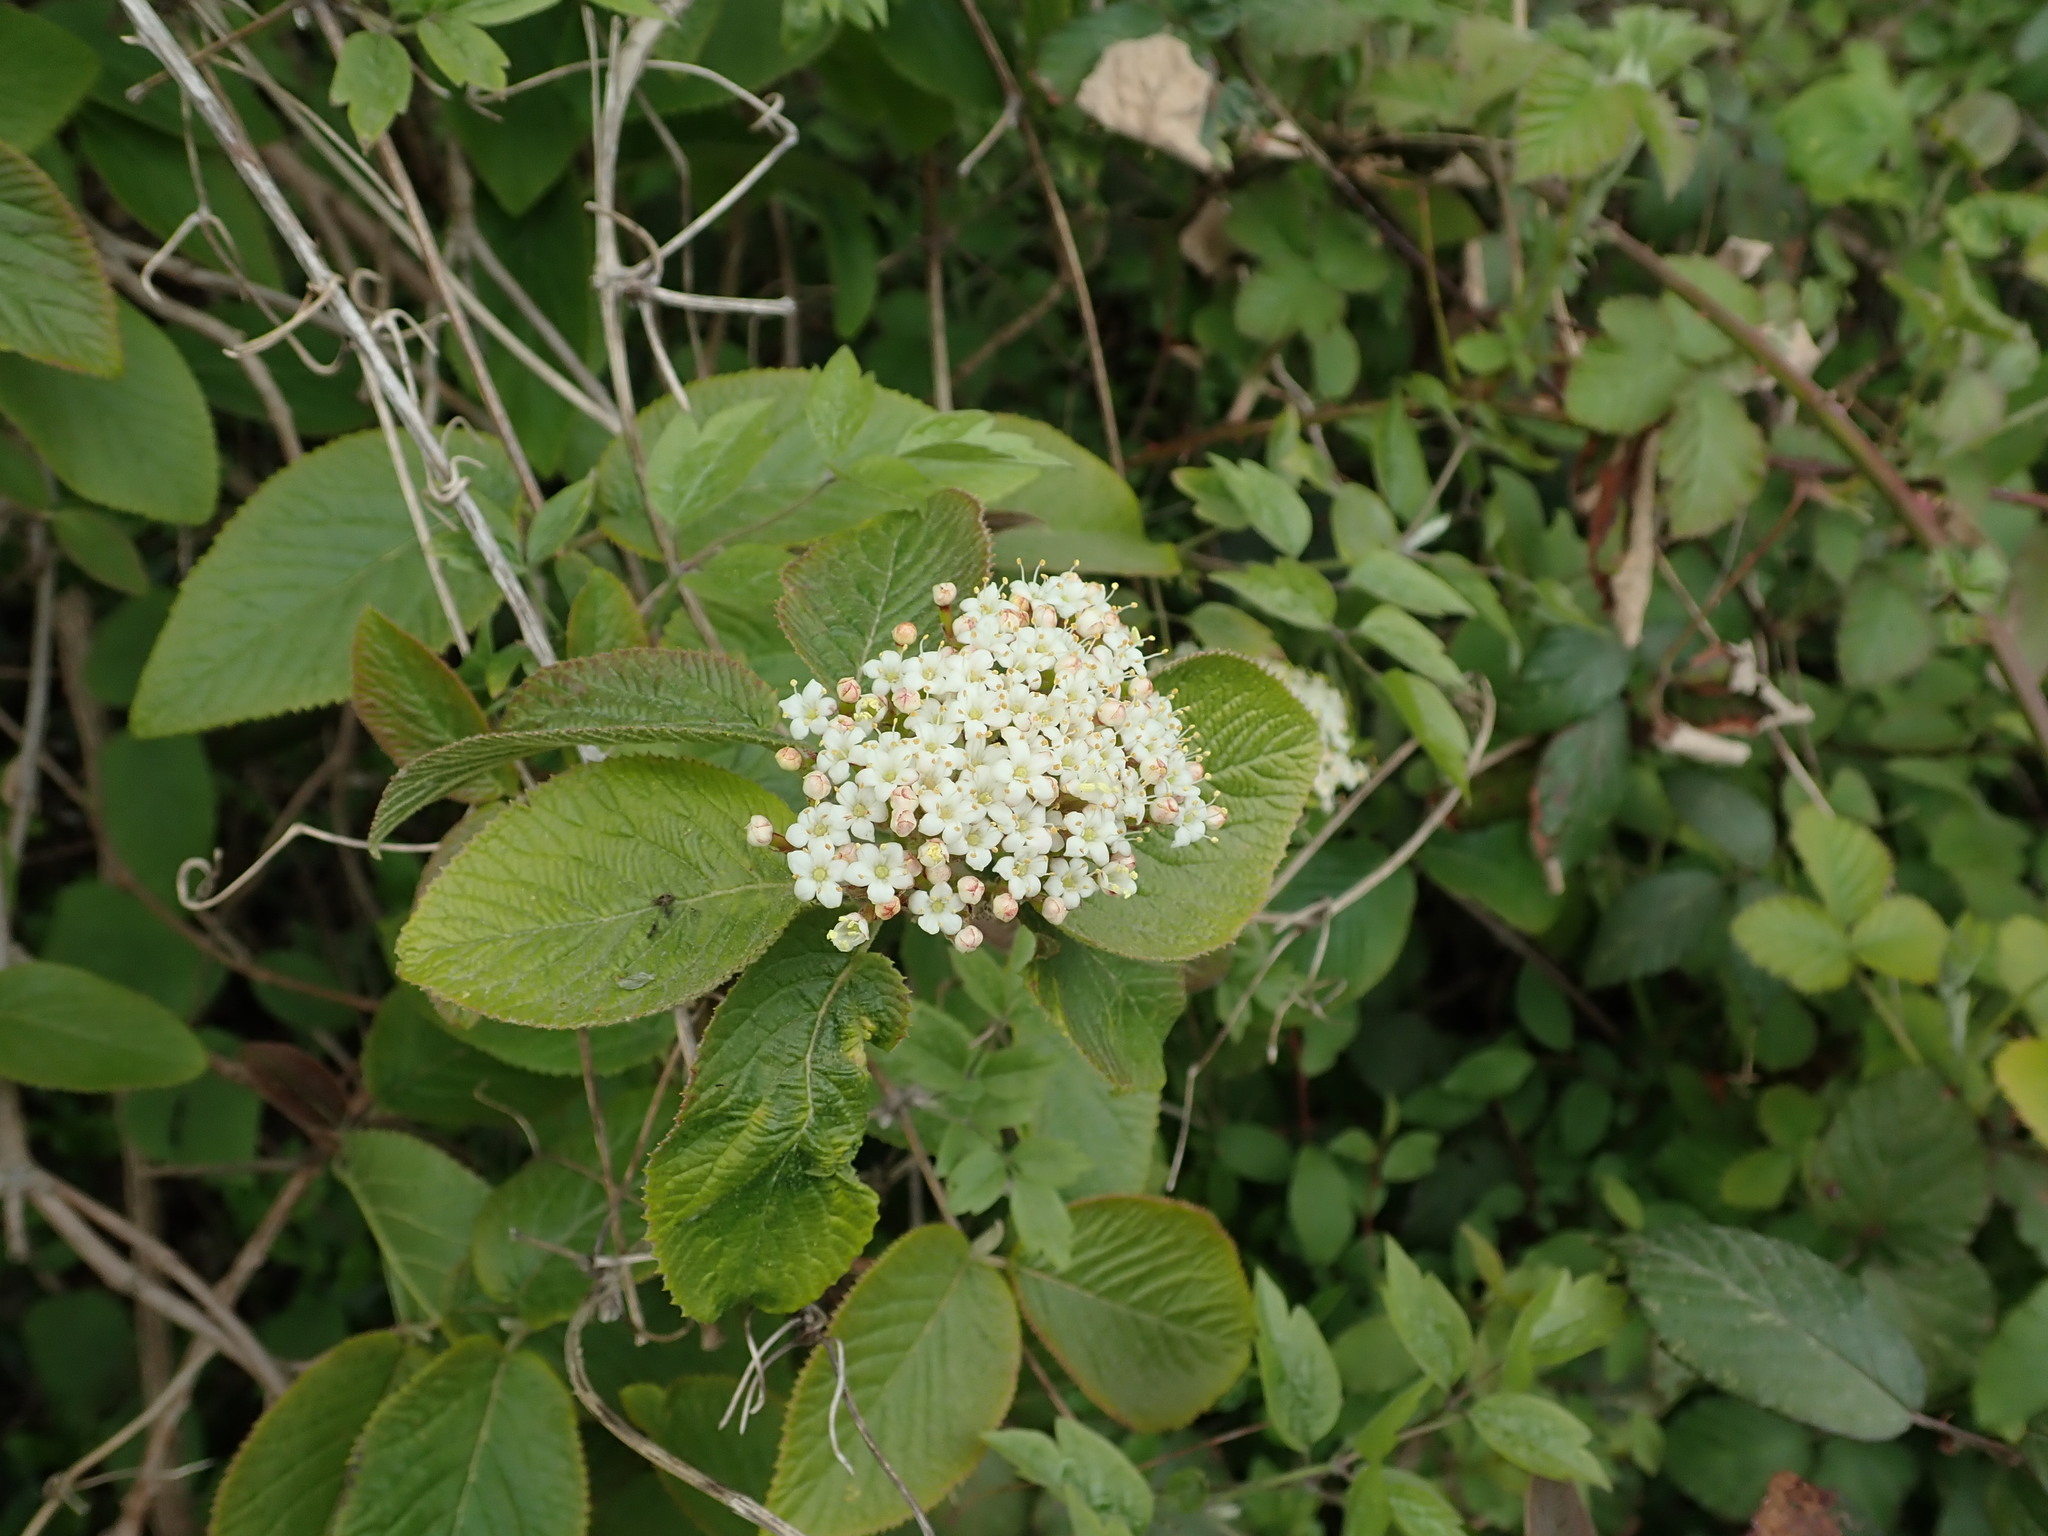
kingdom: Plantae
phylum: Tracheophyta
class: Magnoliopsida
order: Dipsacales
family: Viburnaceae
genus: Viburnum
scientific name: Viburnum lantana
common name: Wayfaring tree
